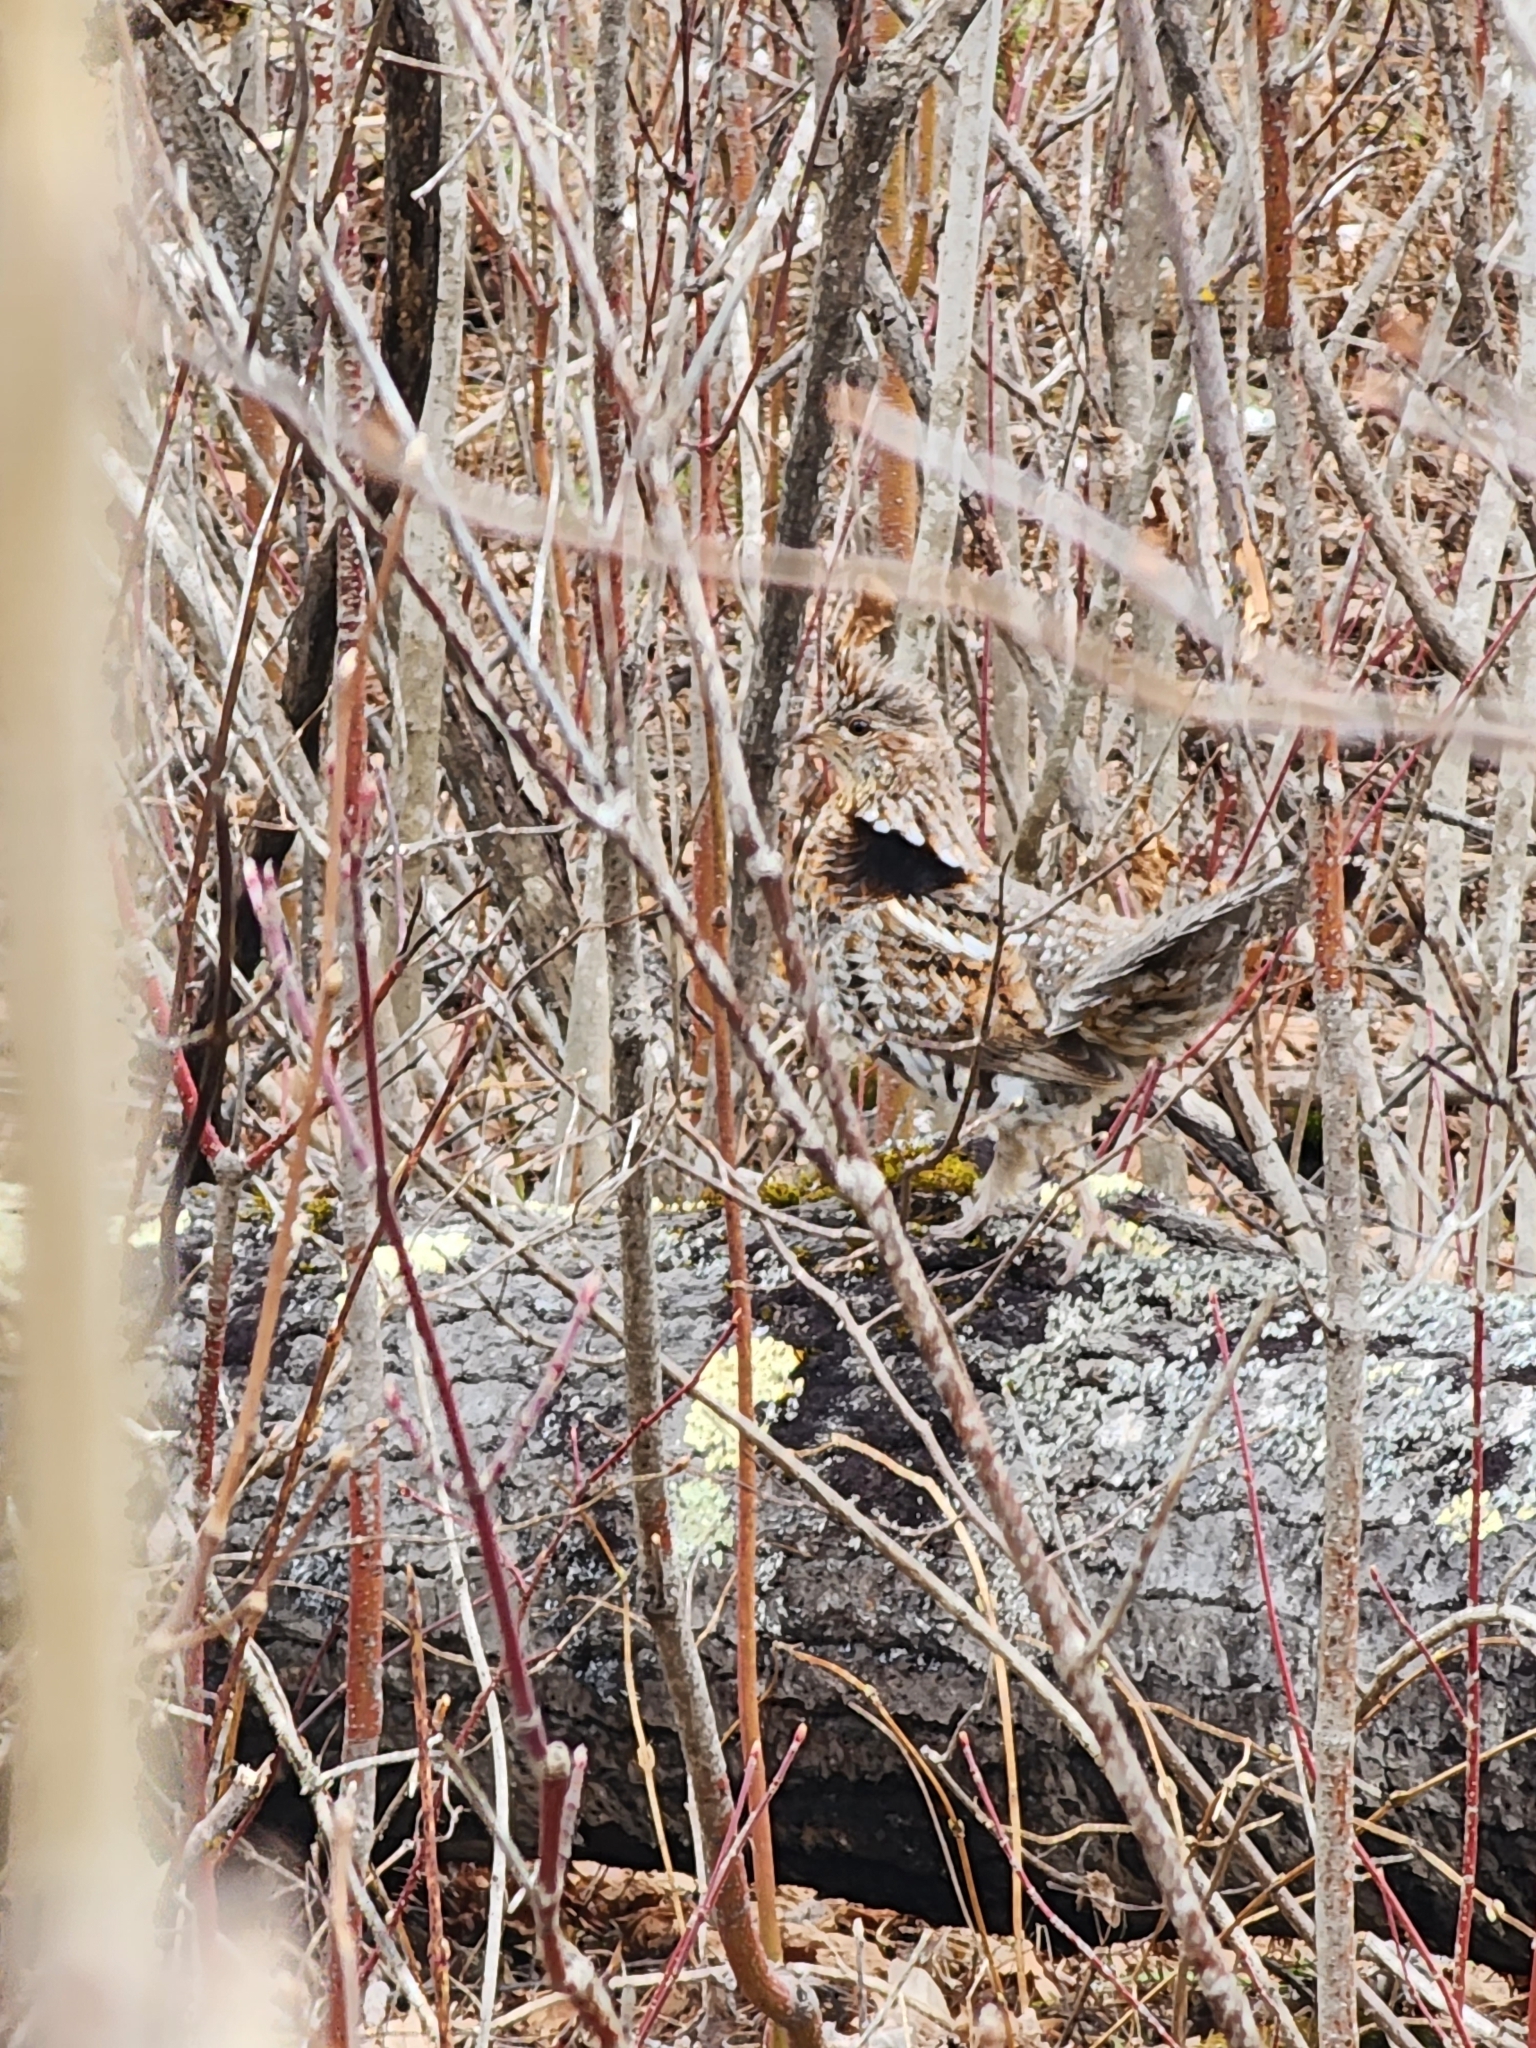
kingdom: Animalia
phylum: Chordata
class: Aves
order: Galliformes
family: Phasianidae
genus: Bonasa
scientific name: Bonasa umbellus
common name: Ruffed grouse
